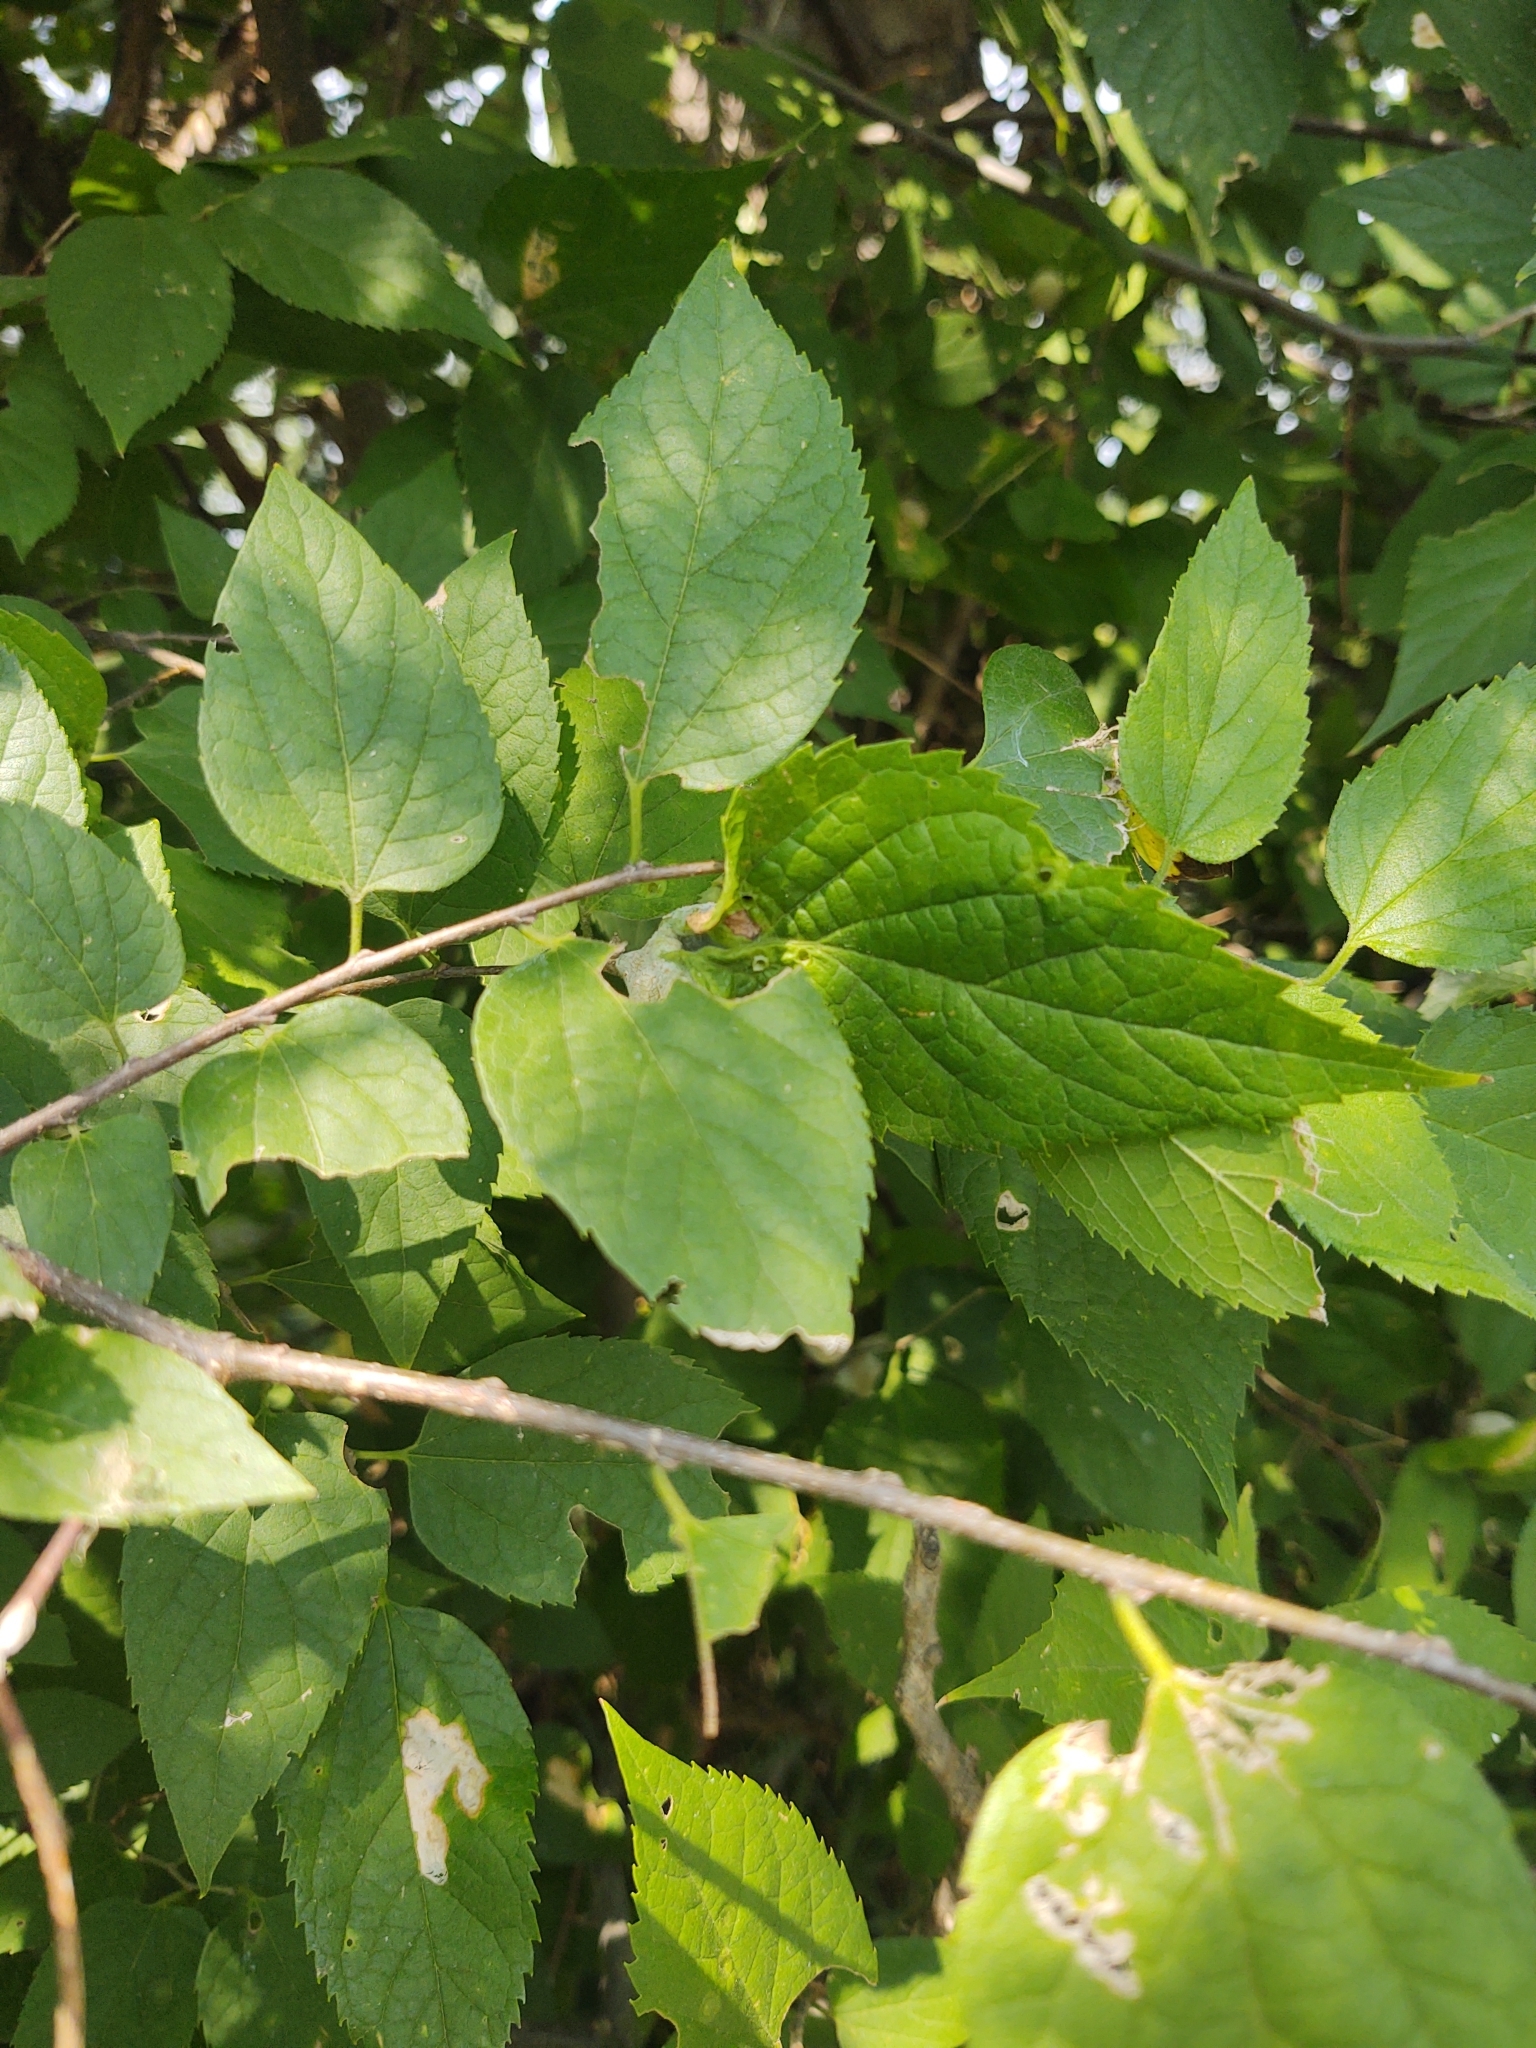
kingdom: Plantae
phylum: Tracheophyta
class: Magnoliopsida
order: Rosales
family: Cannabaceae
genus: Celtis
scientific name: Celtis occidentalis
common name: Common hackberry
